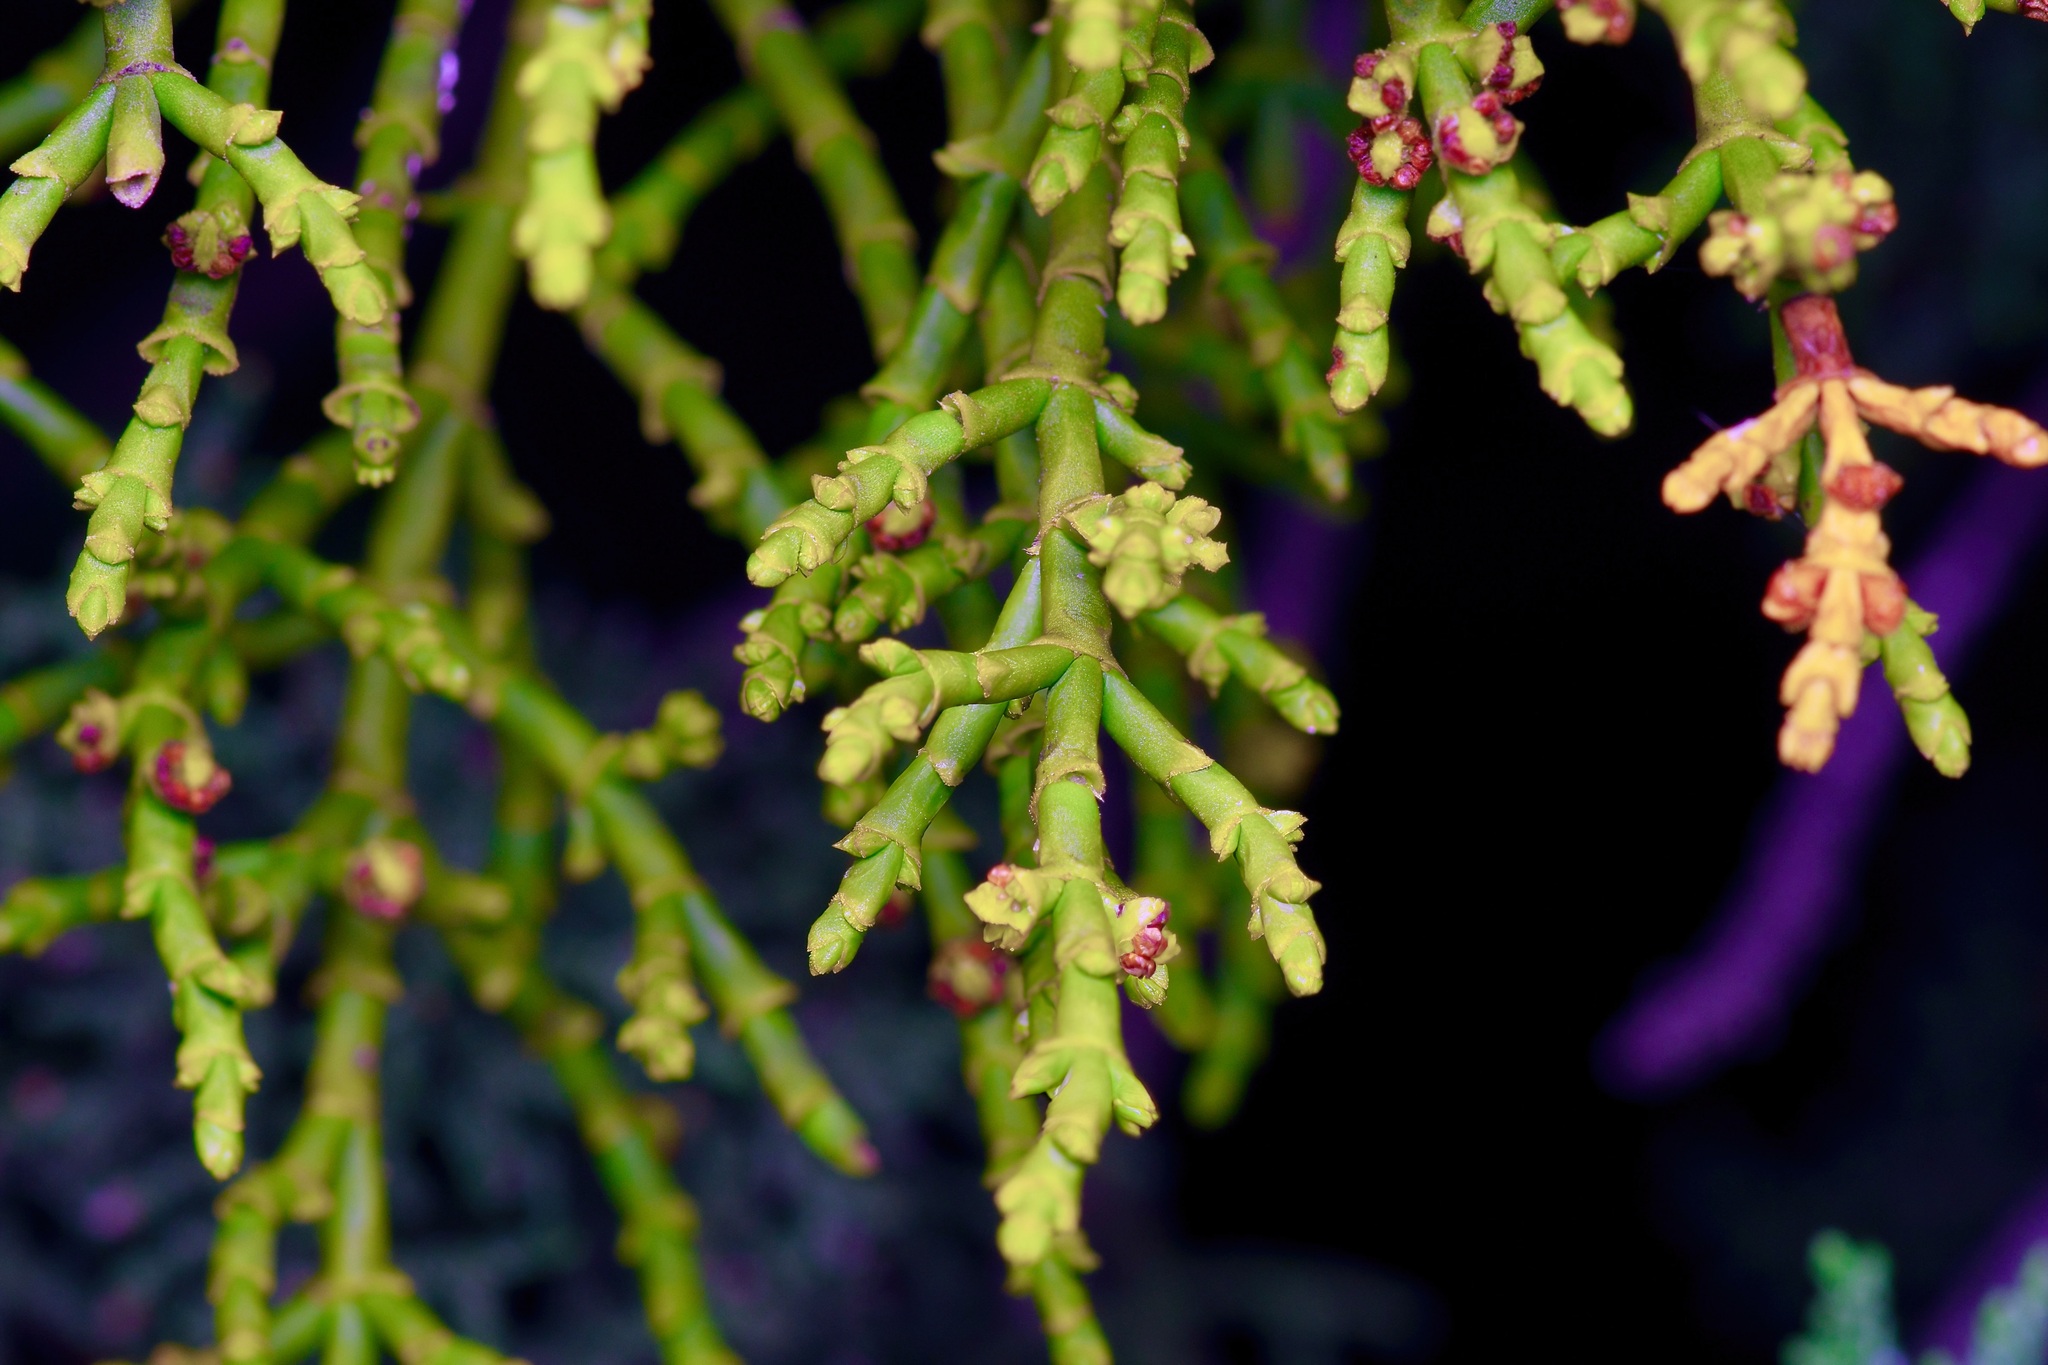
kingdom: Plantae
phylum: Tracheophyta
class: Magnoliopsida
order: Santalales
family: Viscaceae
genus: Phoradendron
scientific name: Phoradendron juniperinum
